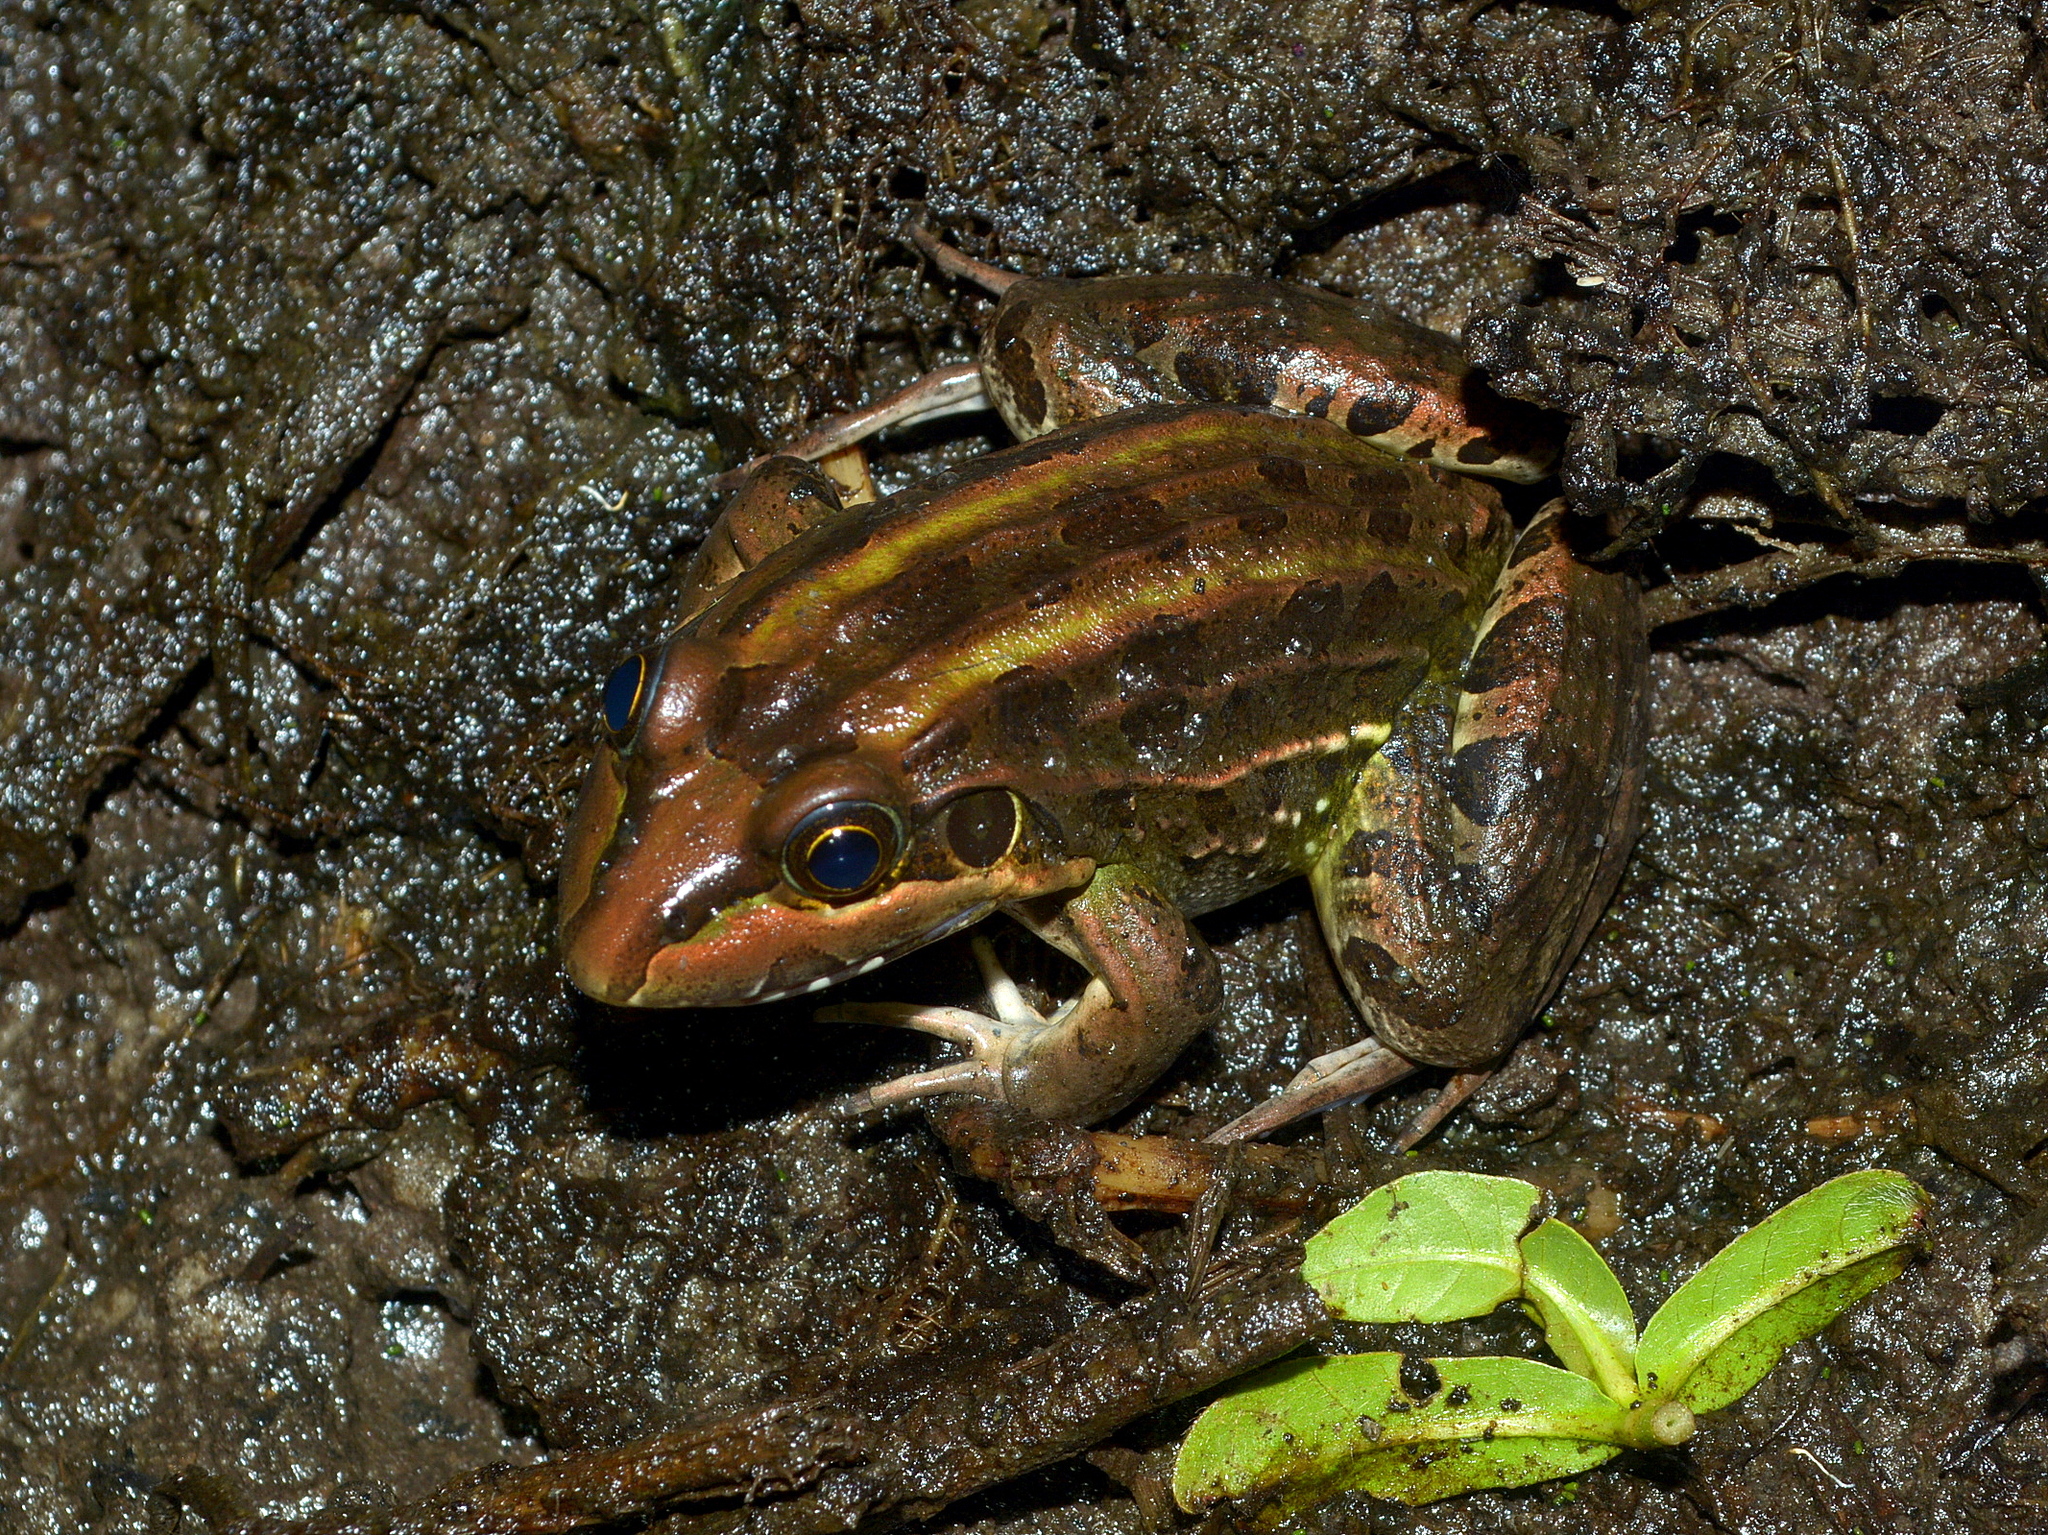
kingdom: Animalia
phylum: Chordata
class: Amphibia
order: Anura
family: Leptodactylidae
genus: Leptodactylus
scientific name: Leptodactylus luctator
